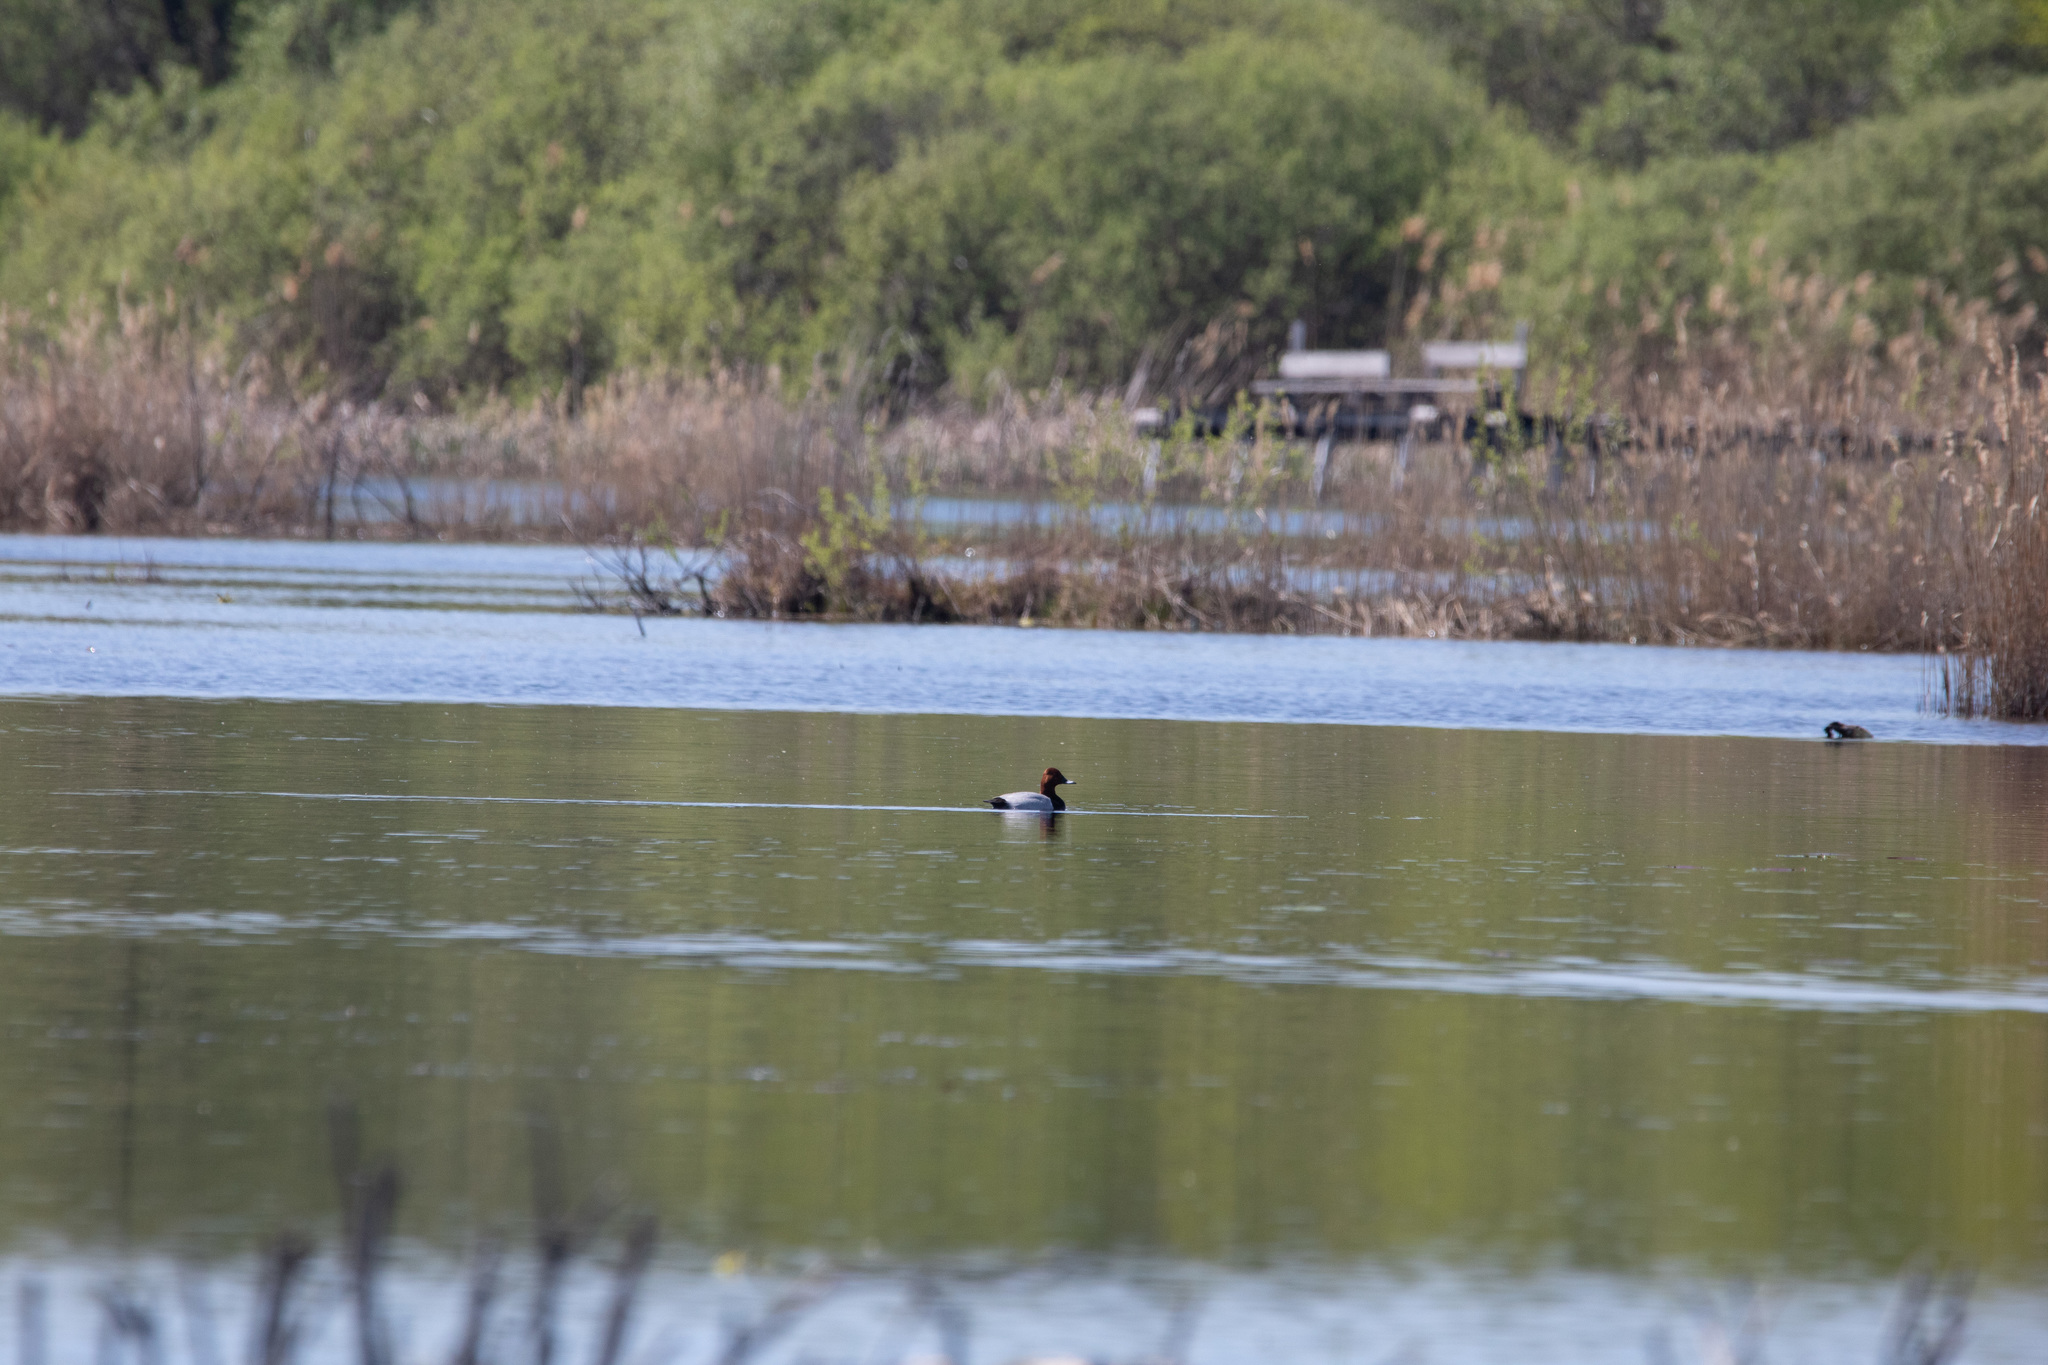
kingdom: Animalia
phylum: Chordata
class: Aves
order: Anseriformes
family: Anatidae
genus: Aythya
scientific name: Aythya ferina
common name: Common pochard
